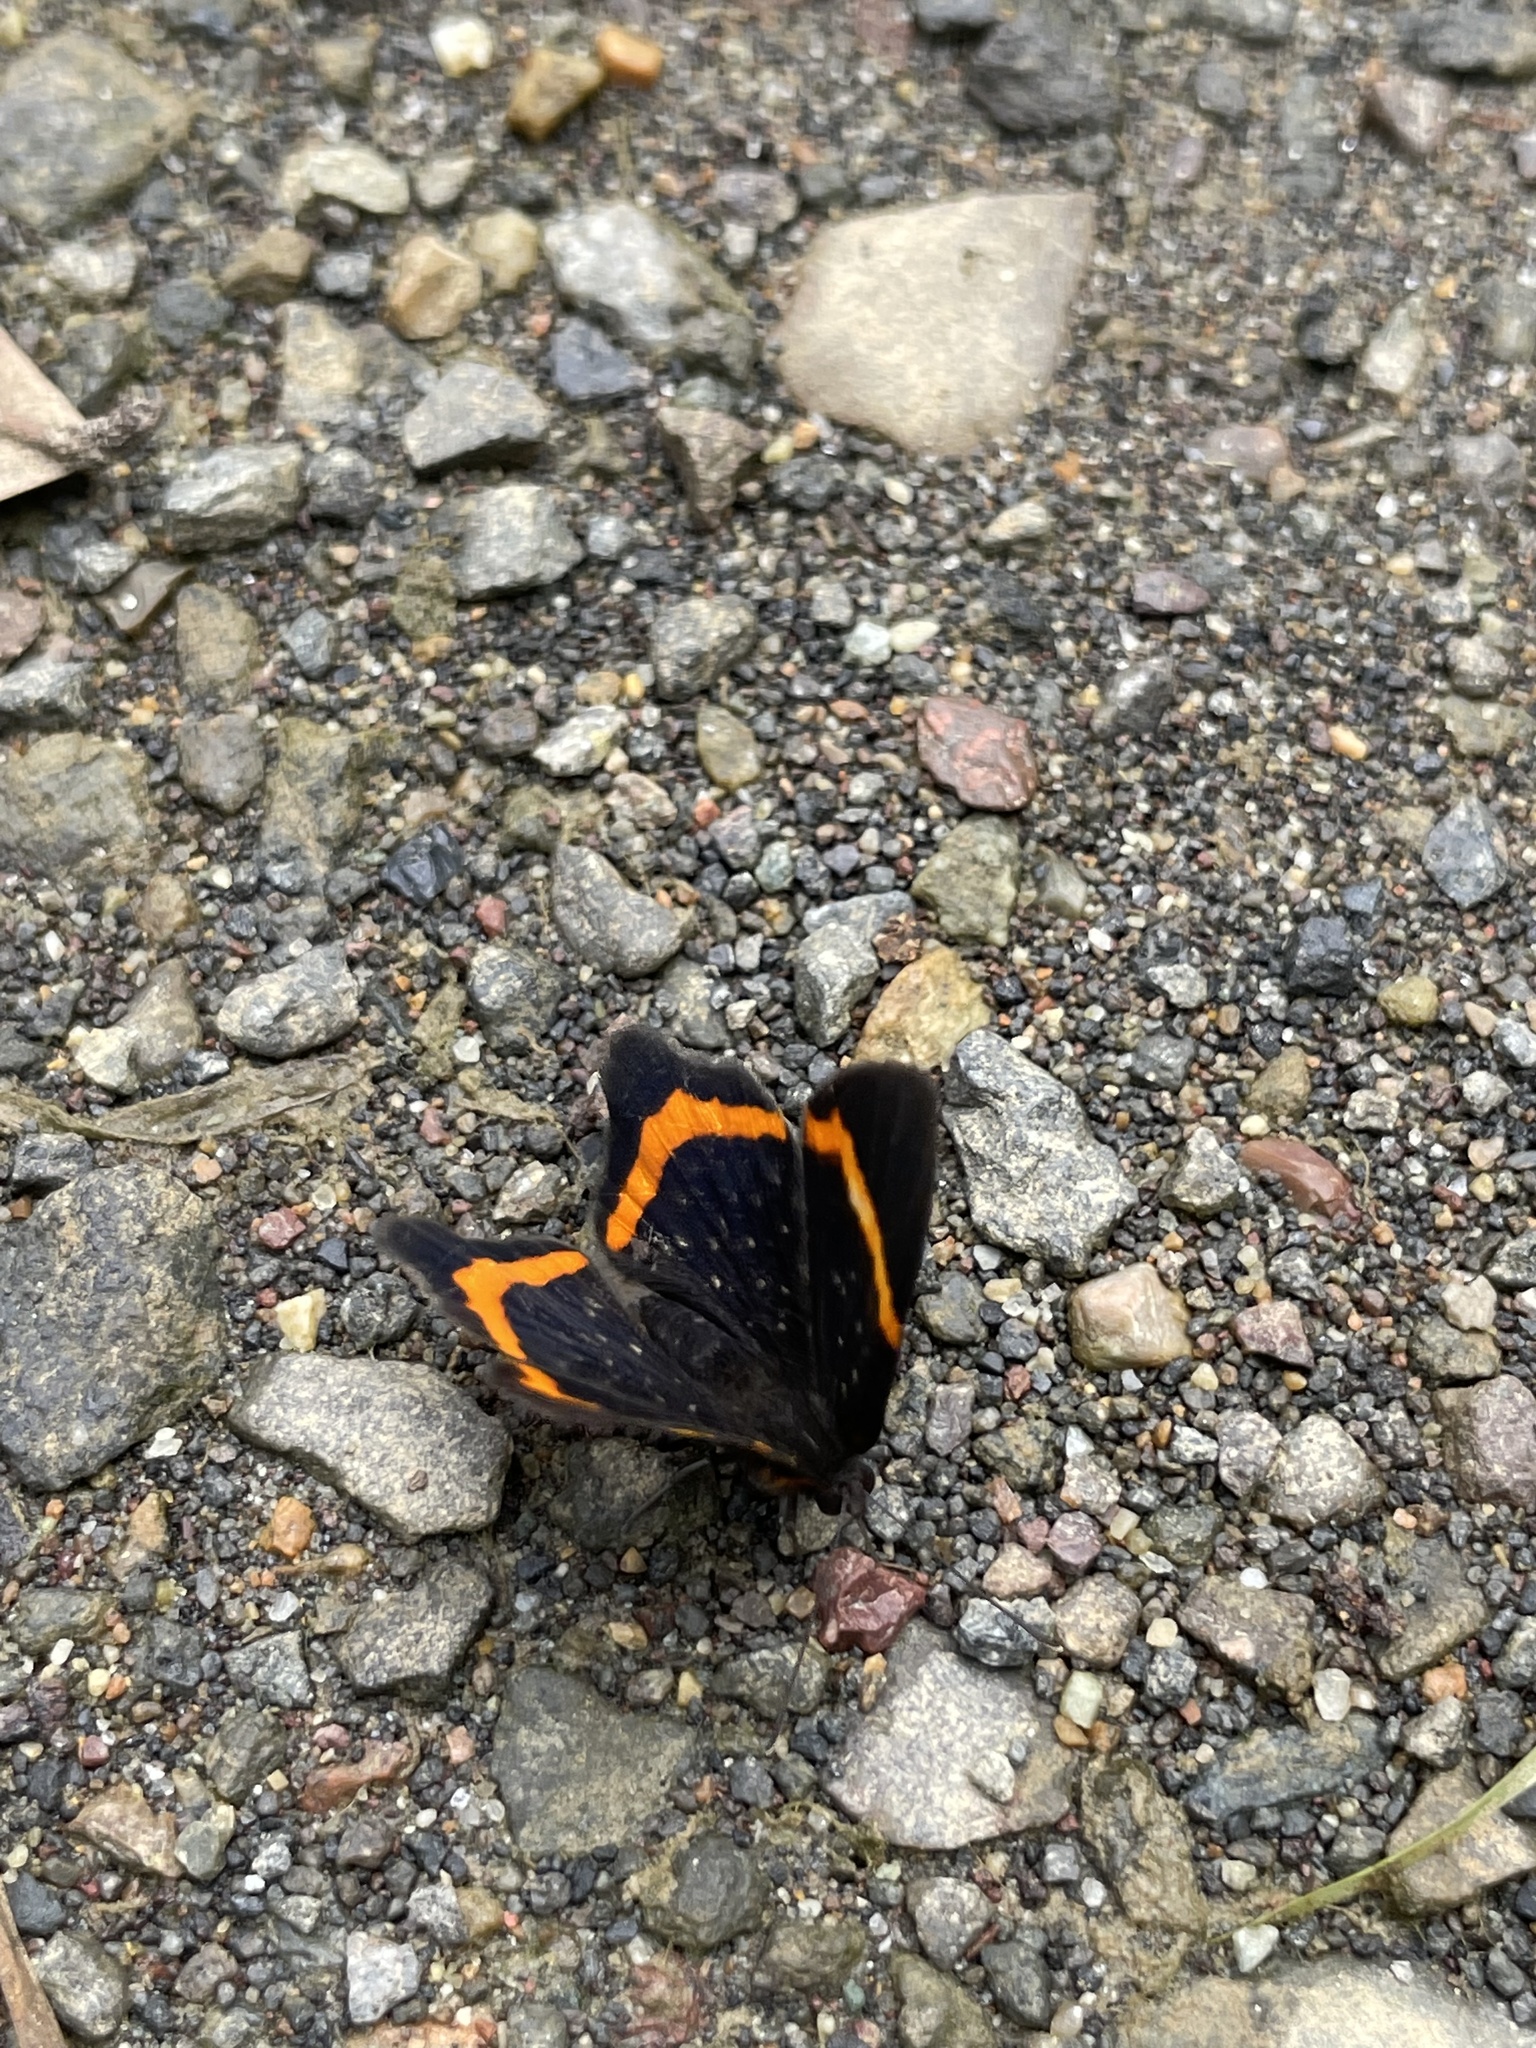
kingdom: Animalia
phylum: Arthropoda
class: Insecta
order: Lepidoptera
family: Riodinidae
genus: Riodina
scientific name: Riodina lysippus
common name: Lysippus metalmark
